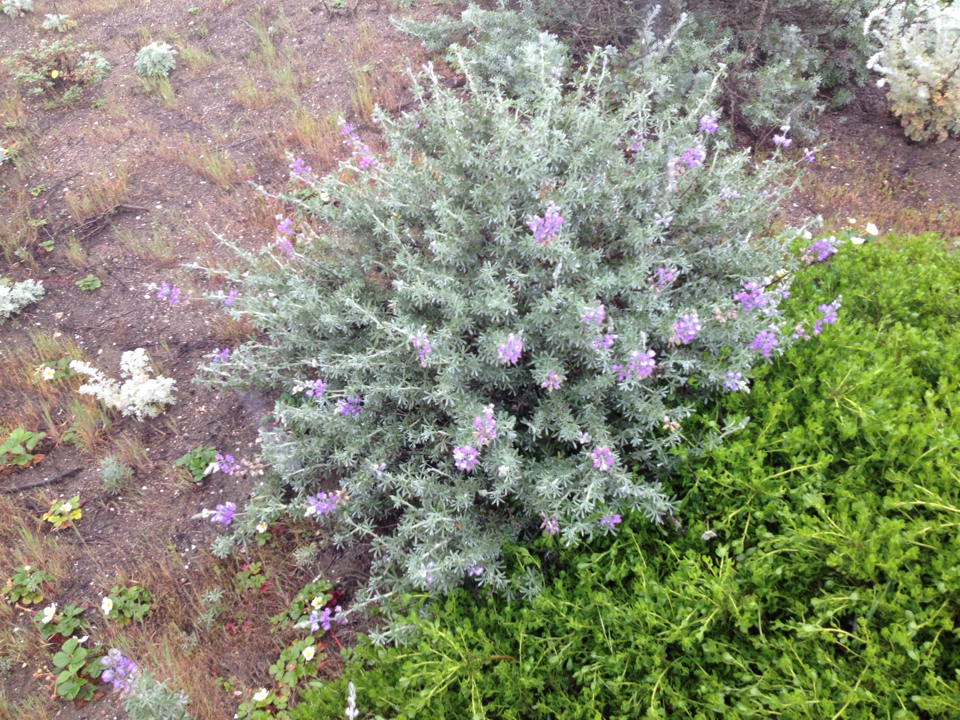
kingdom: Plantae
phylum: Tracheophyta
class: Magnoliopsida
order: Fabales
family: Fabaceae
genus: Lupinus
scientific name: Lupinus chamissonis
